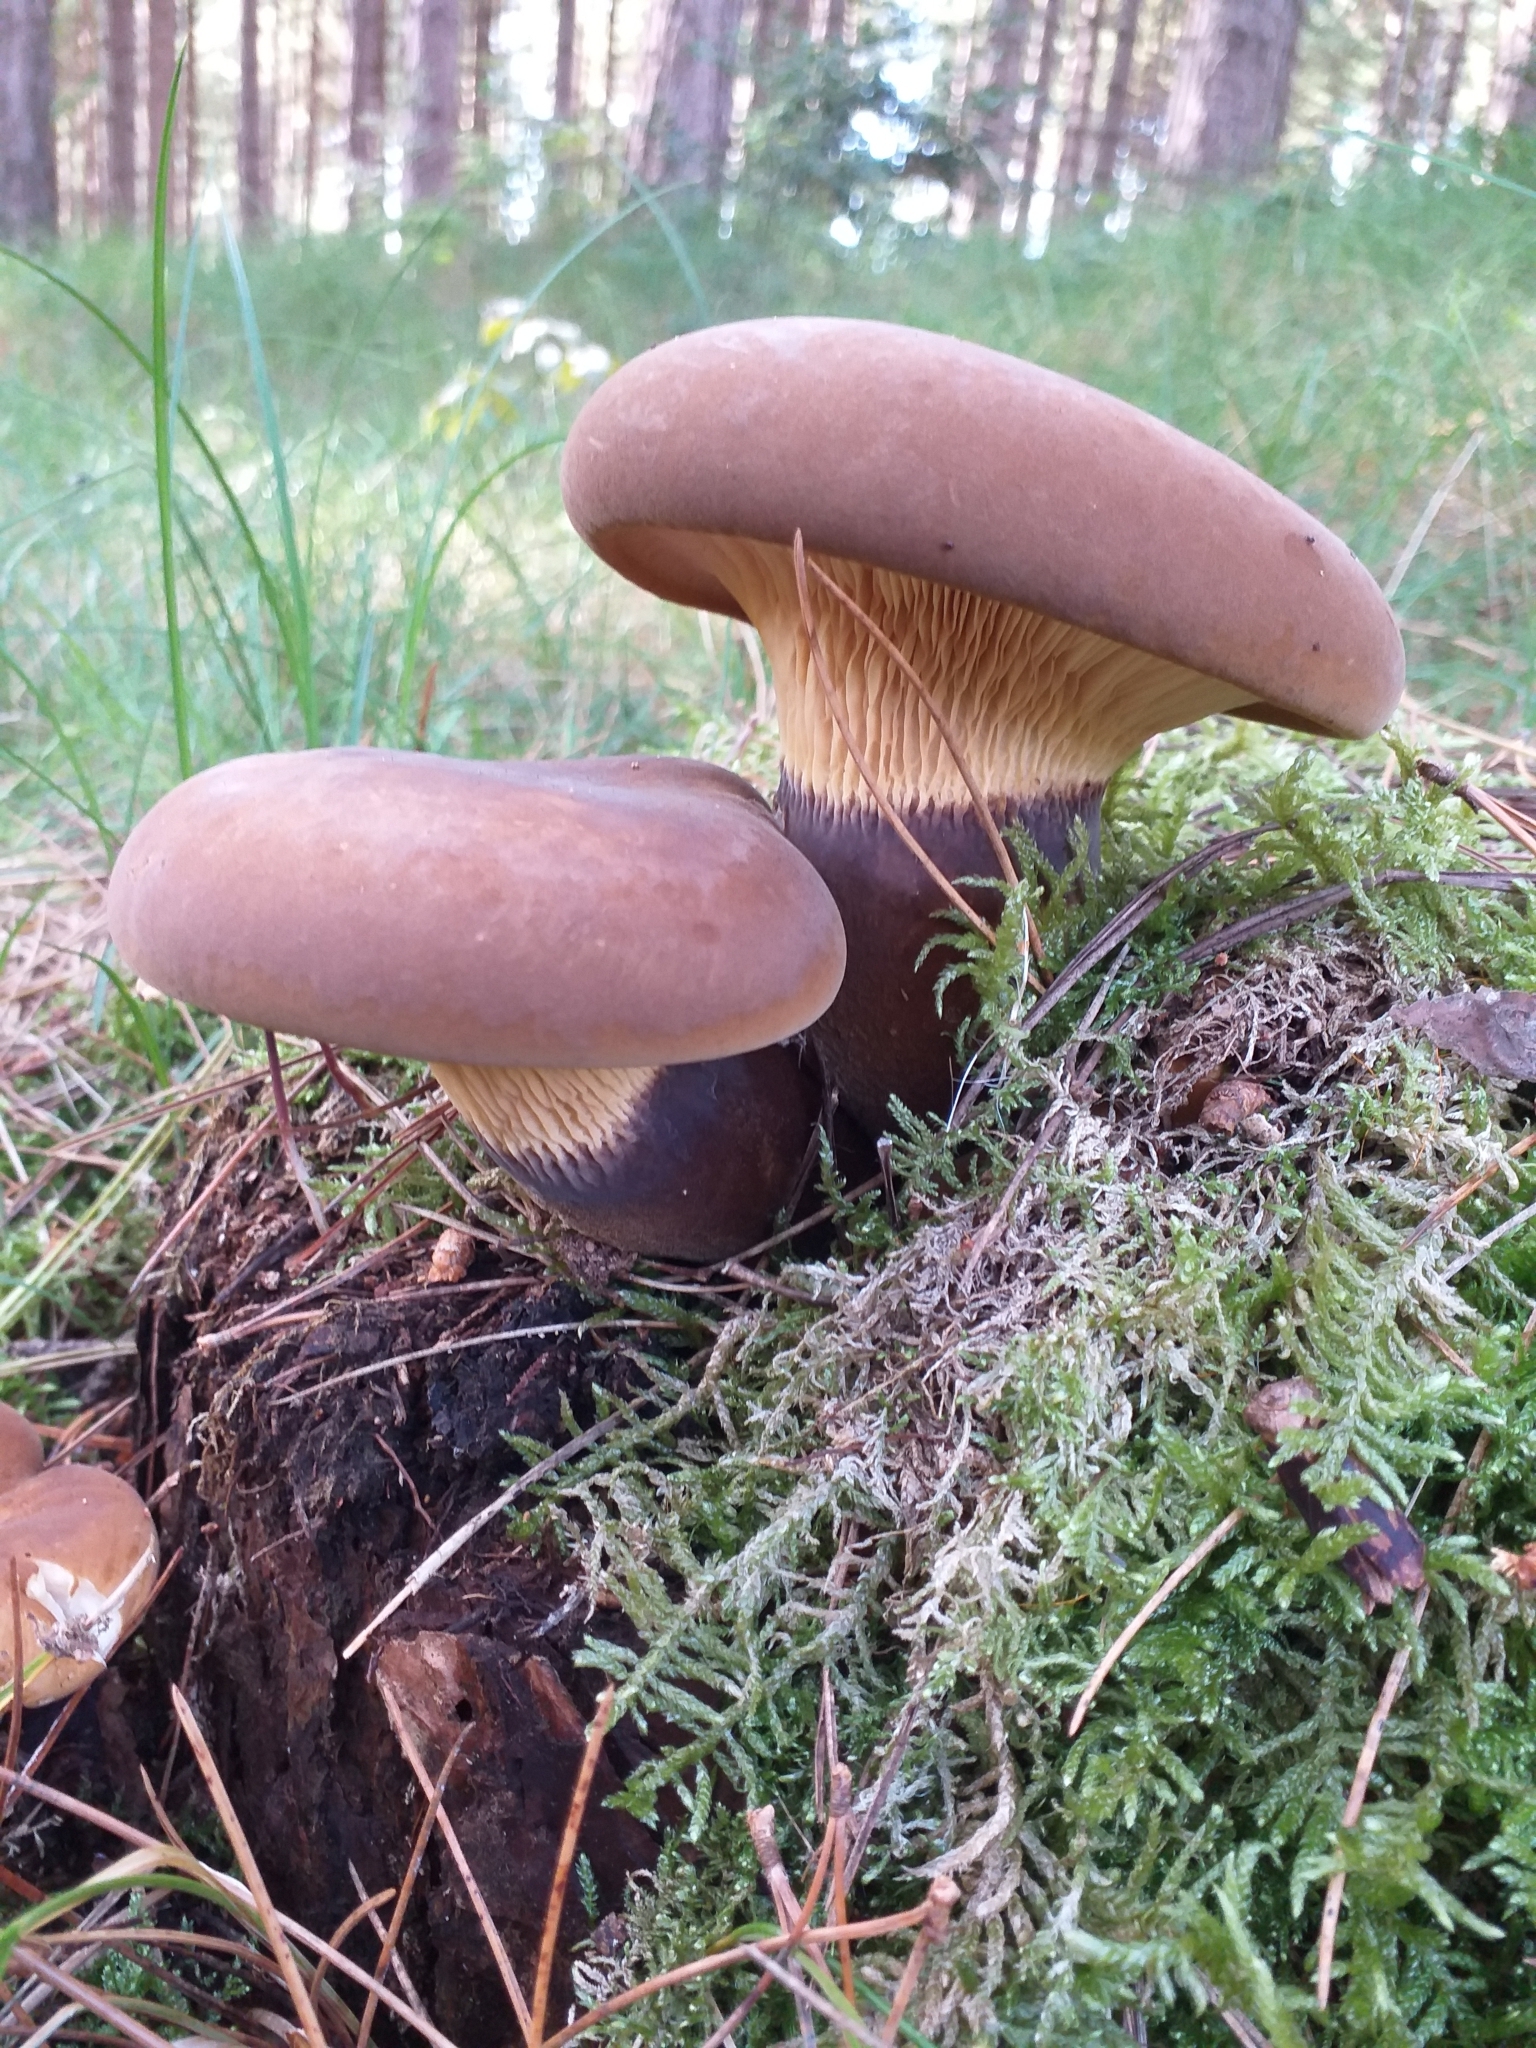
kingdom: Fungi
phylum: Basidiomycota
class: Agaricomycetes
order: Boletales
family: Tapinellaceae
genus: Tapinella
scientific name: Tapinella atrotomentosa
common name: Velvet rollrim
